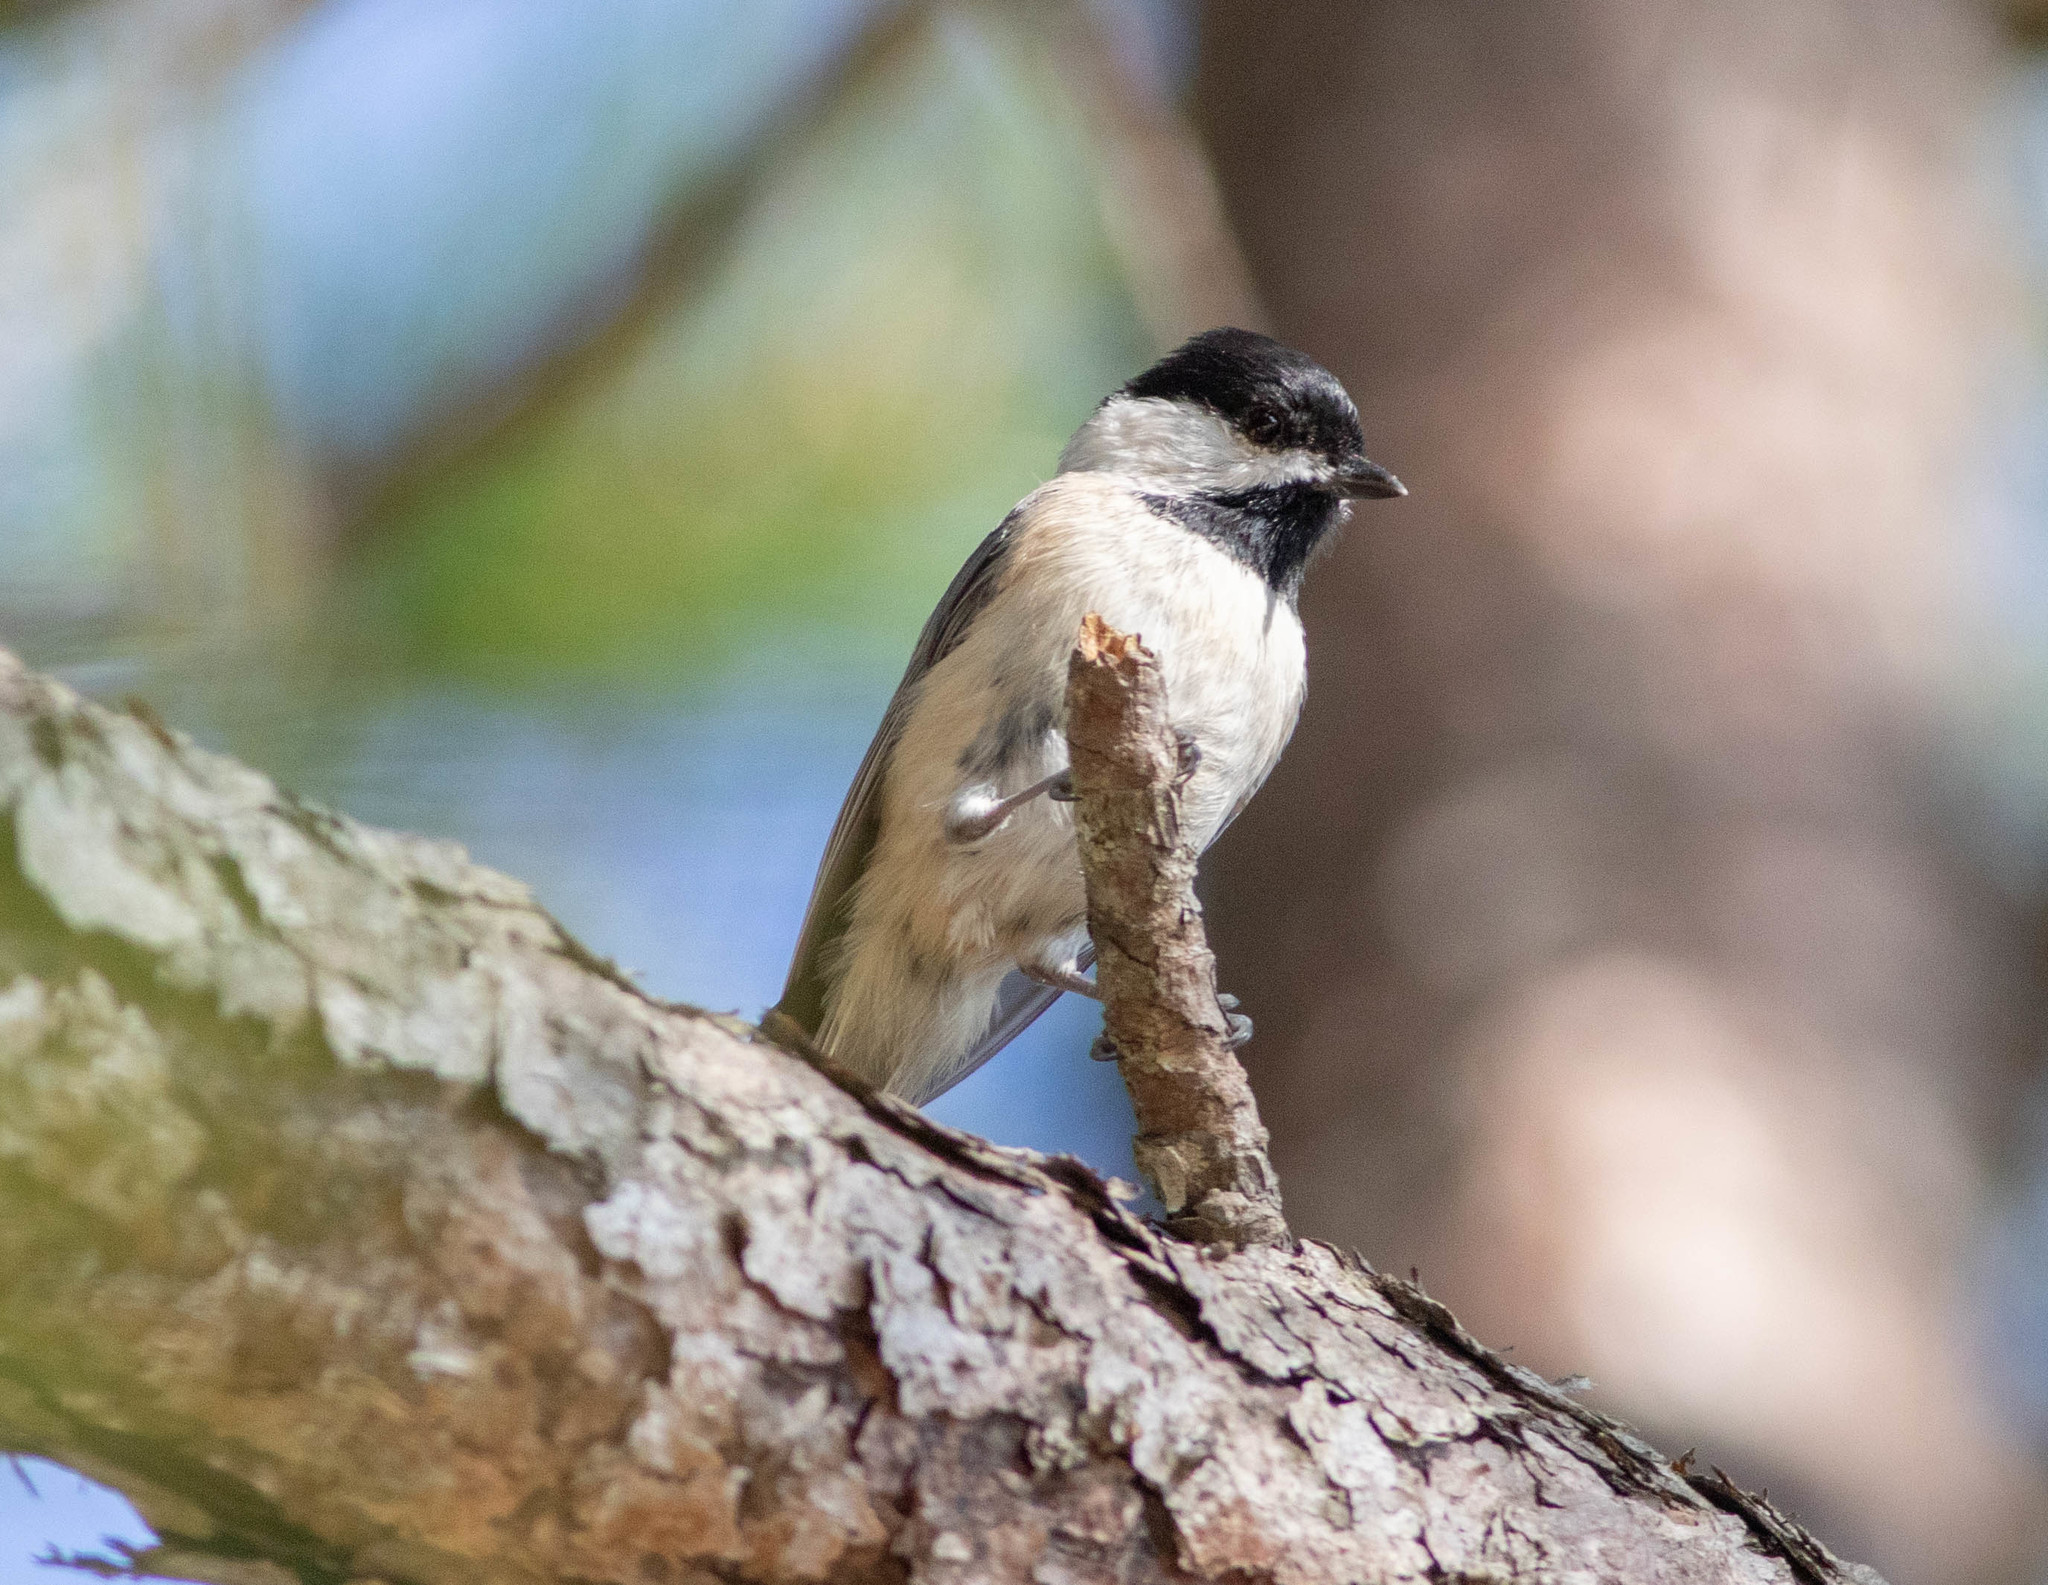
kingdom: Animalia
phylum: Chordata
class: Aves
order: Passeriformes
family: Paridae
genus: Poecile
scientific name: Poecile carolinensis
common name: Carolina chickadee
